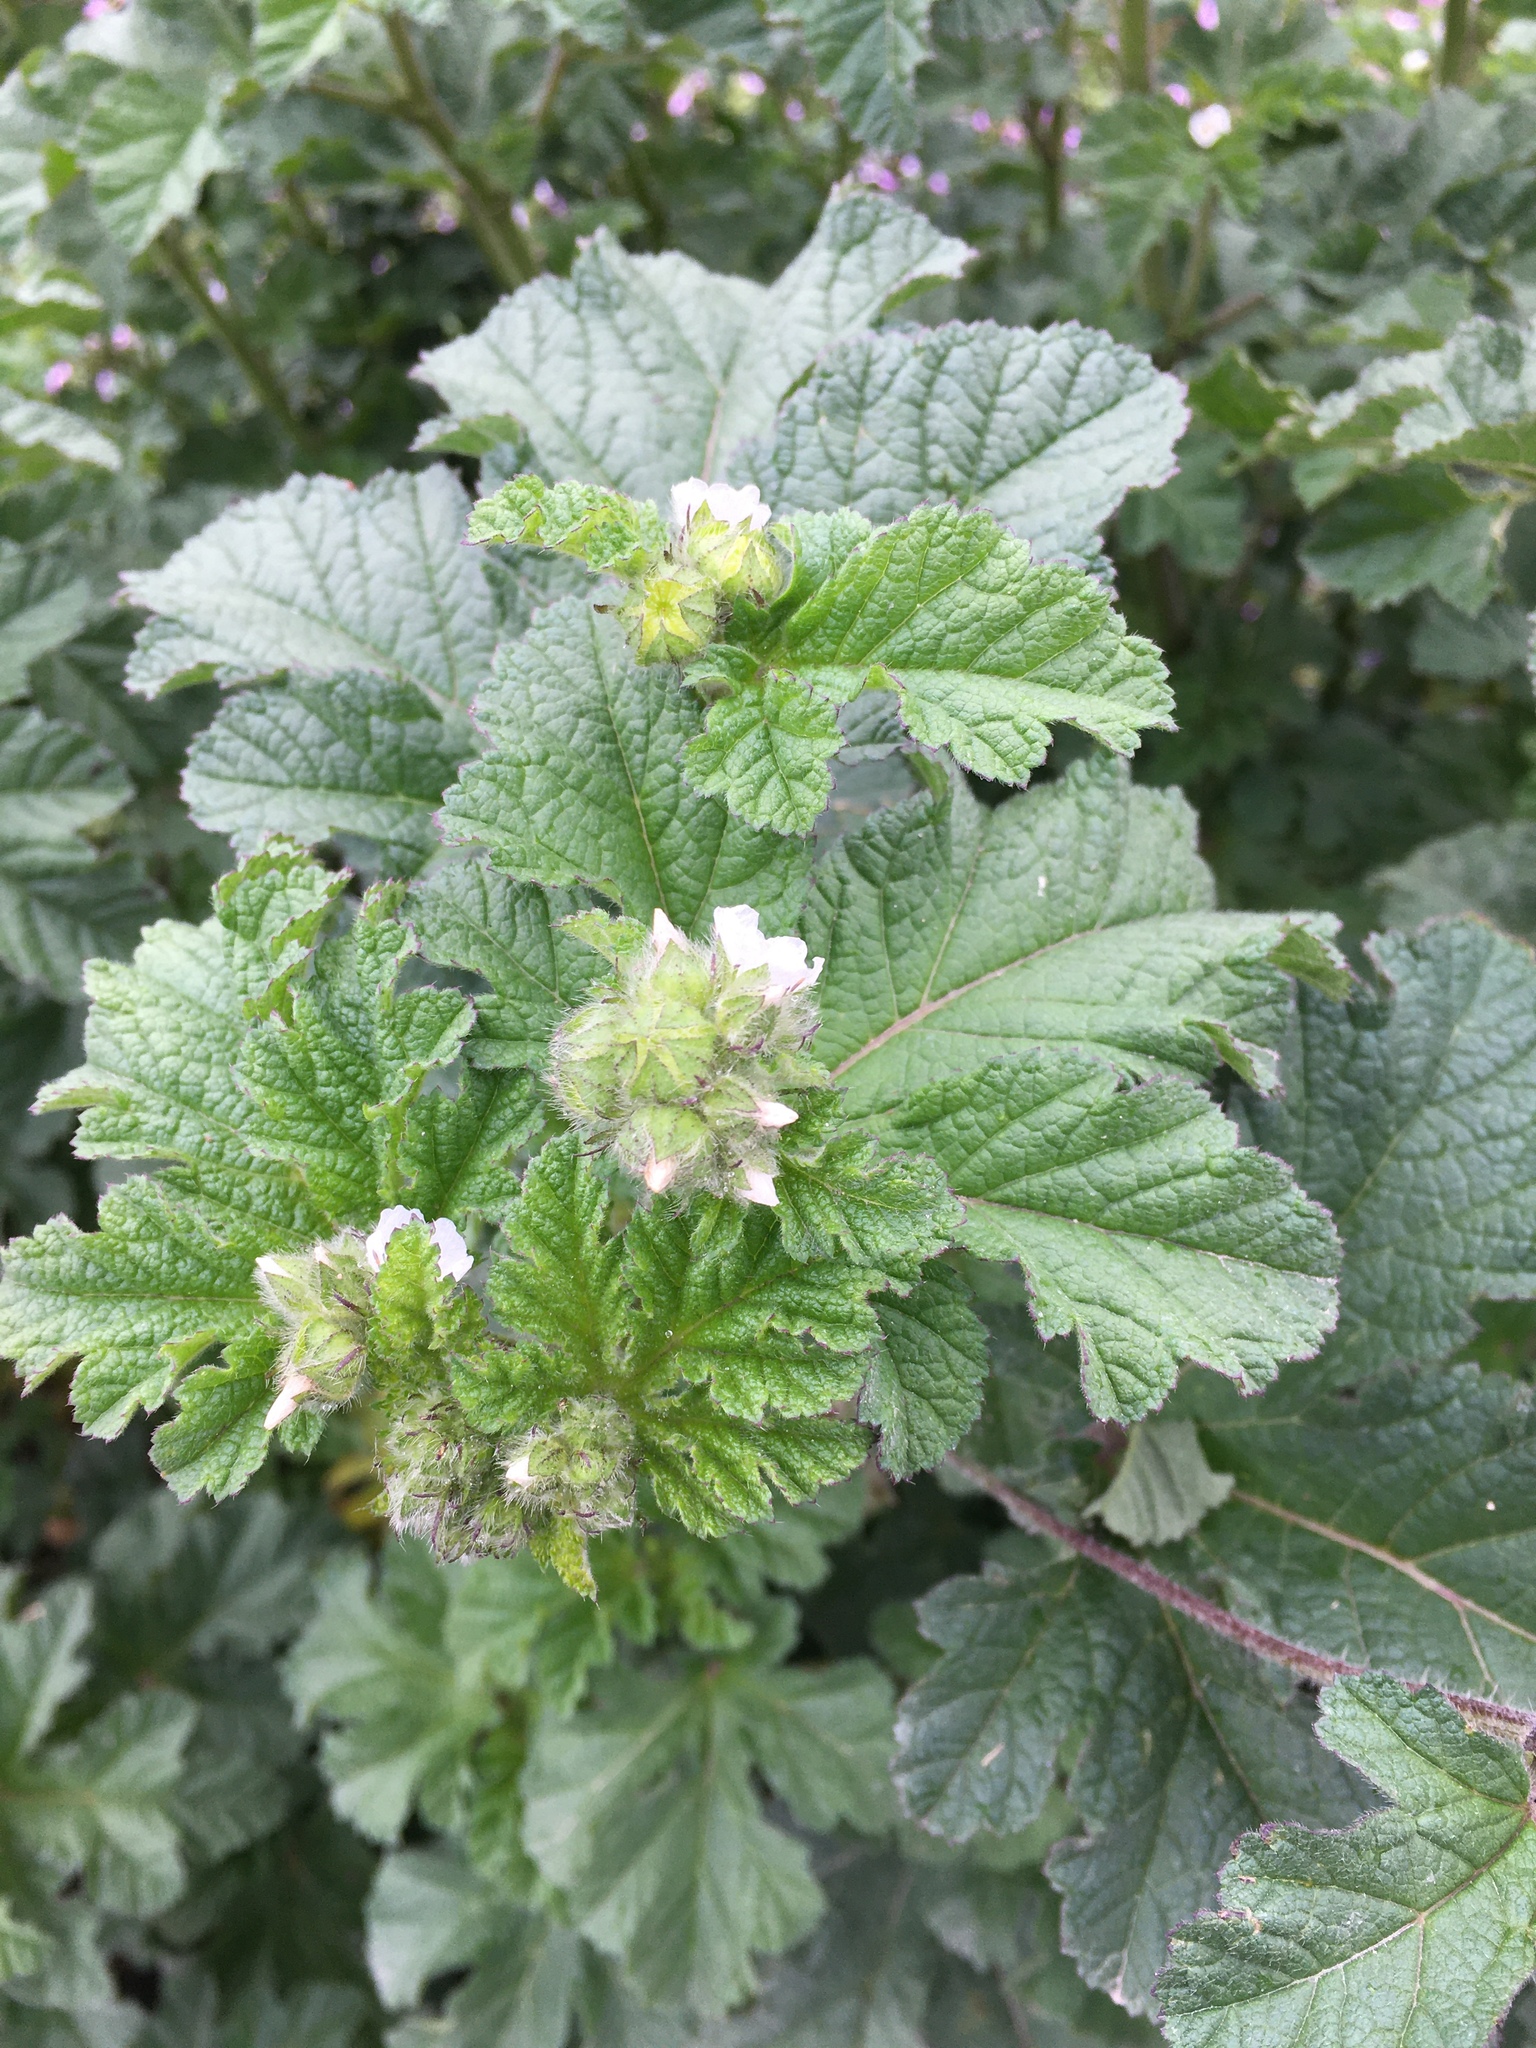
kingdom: Plantae
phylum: Tracheophyta
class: Magnoliopsida
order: Malvales
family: Malvaceae
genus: Fuertesimalva
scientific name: Fuertesimalva limensis
